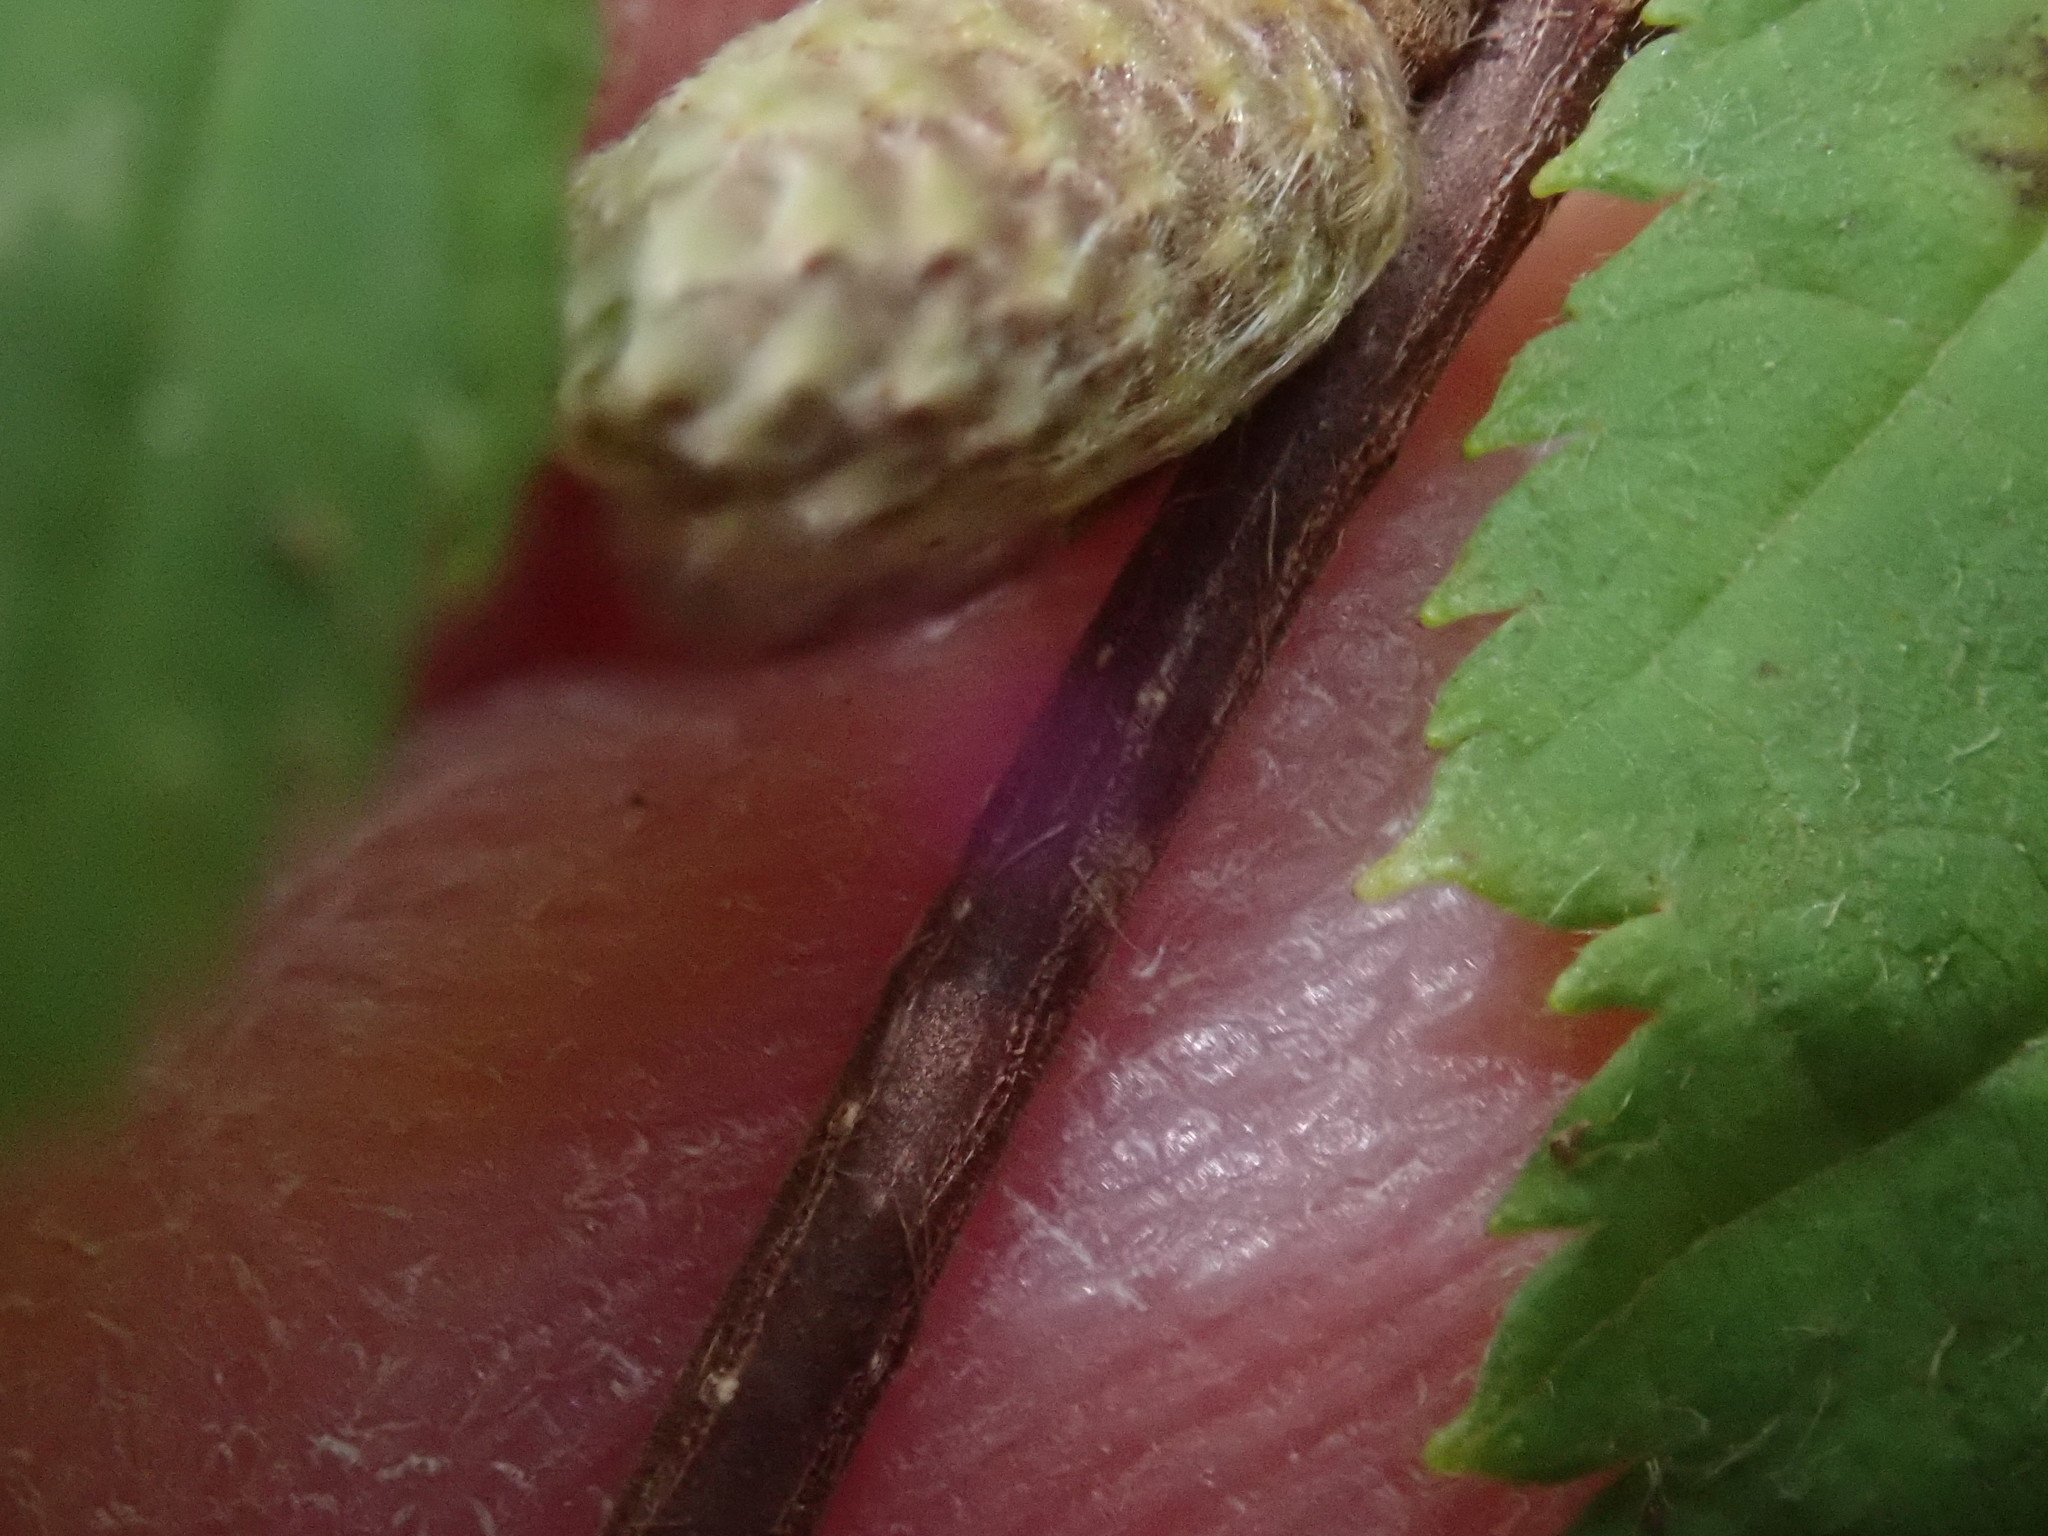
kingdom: Plantae
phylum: Tracheophyta
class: Magnoliopsida
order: Fagales
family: Betulaceae
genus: Corylus
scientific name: Corylus cornuta
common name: Beaked hazel
